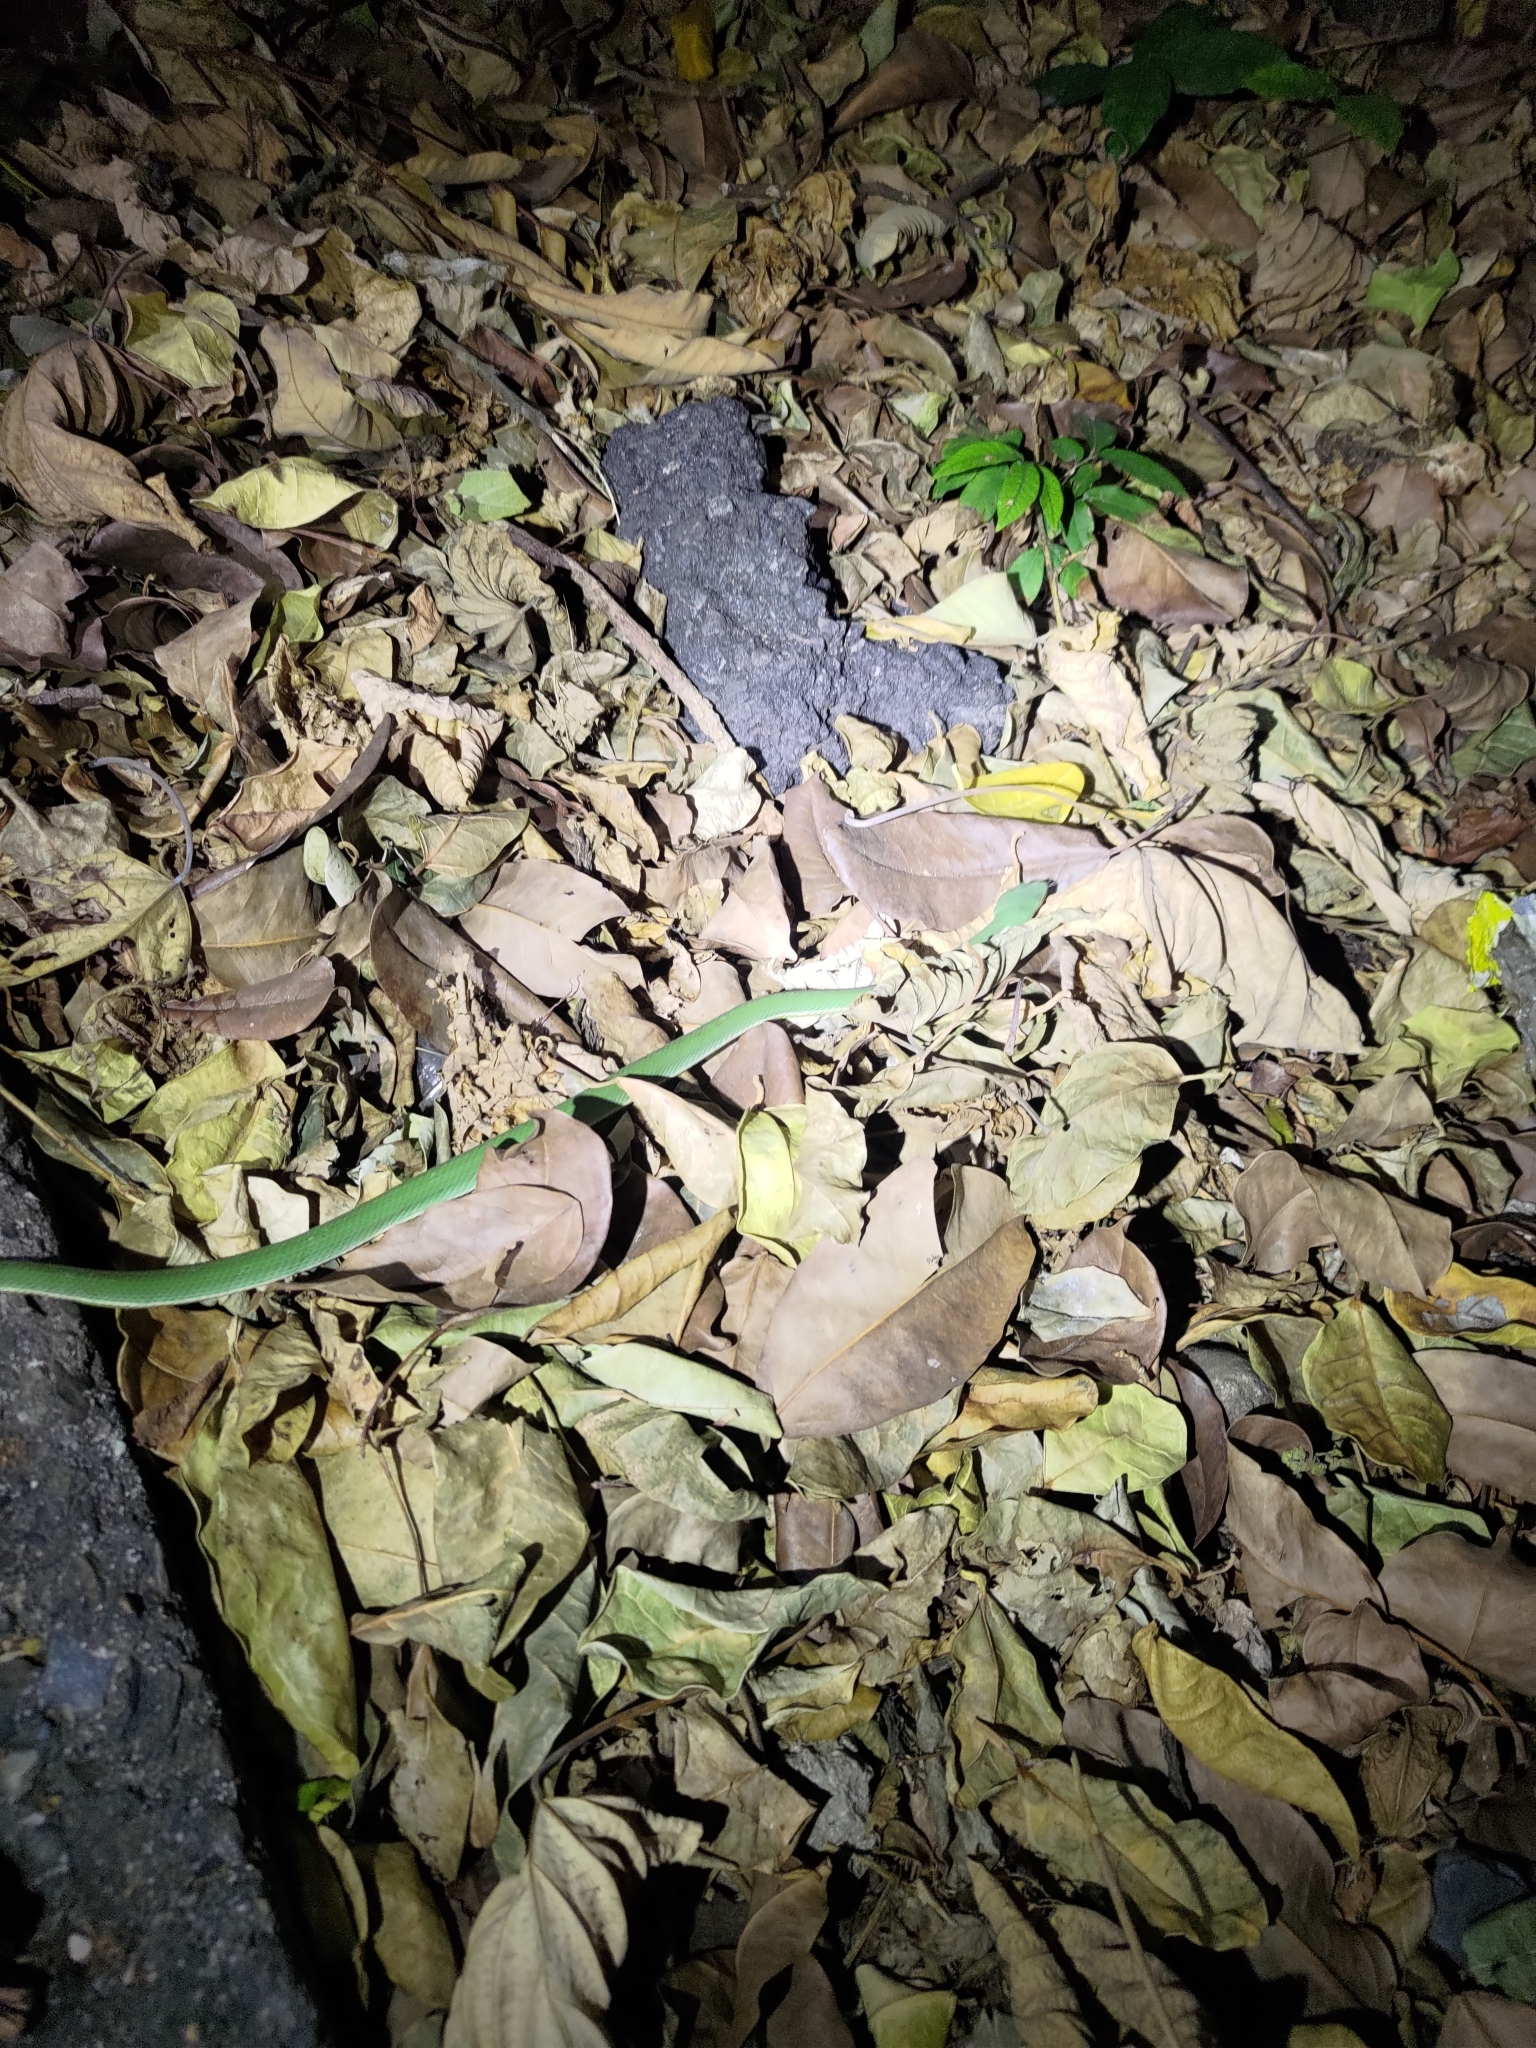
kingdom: Animalia
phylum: Chordata
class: Squamata
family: Viperidae
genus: Trimeresurus
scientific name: Trimeresurus stejnegeri
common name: Chen’s bamboo pit viper
